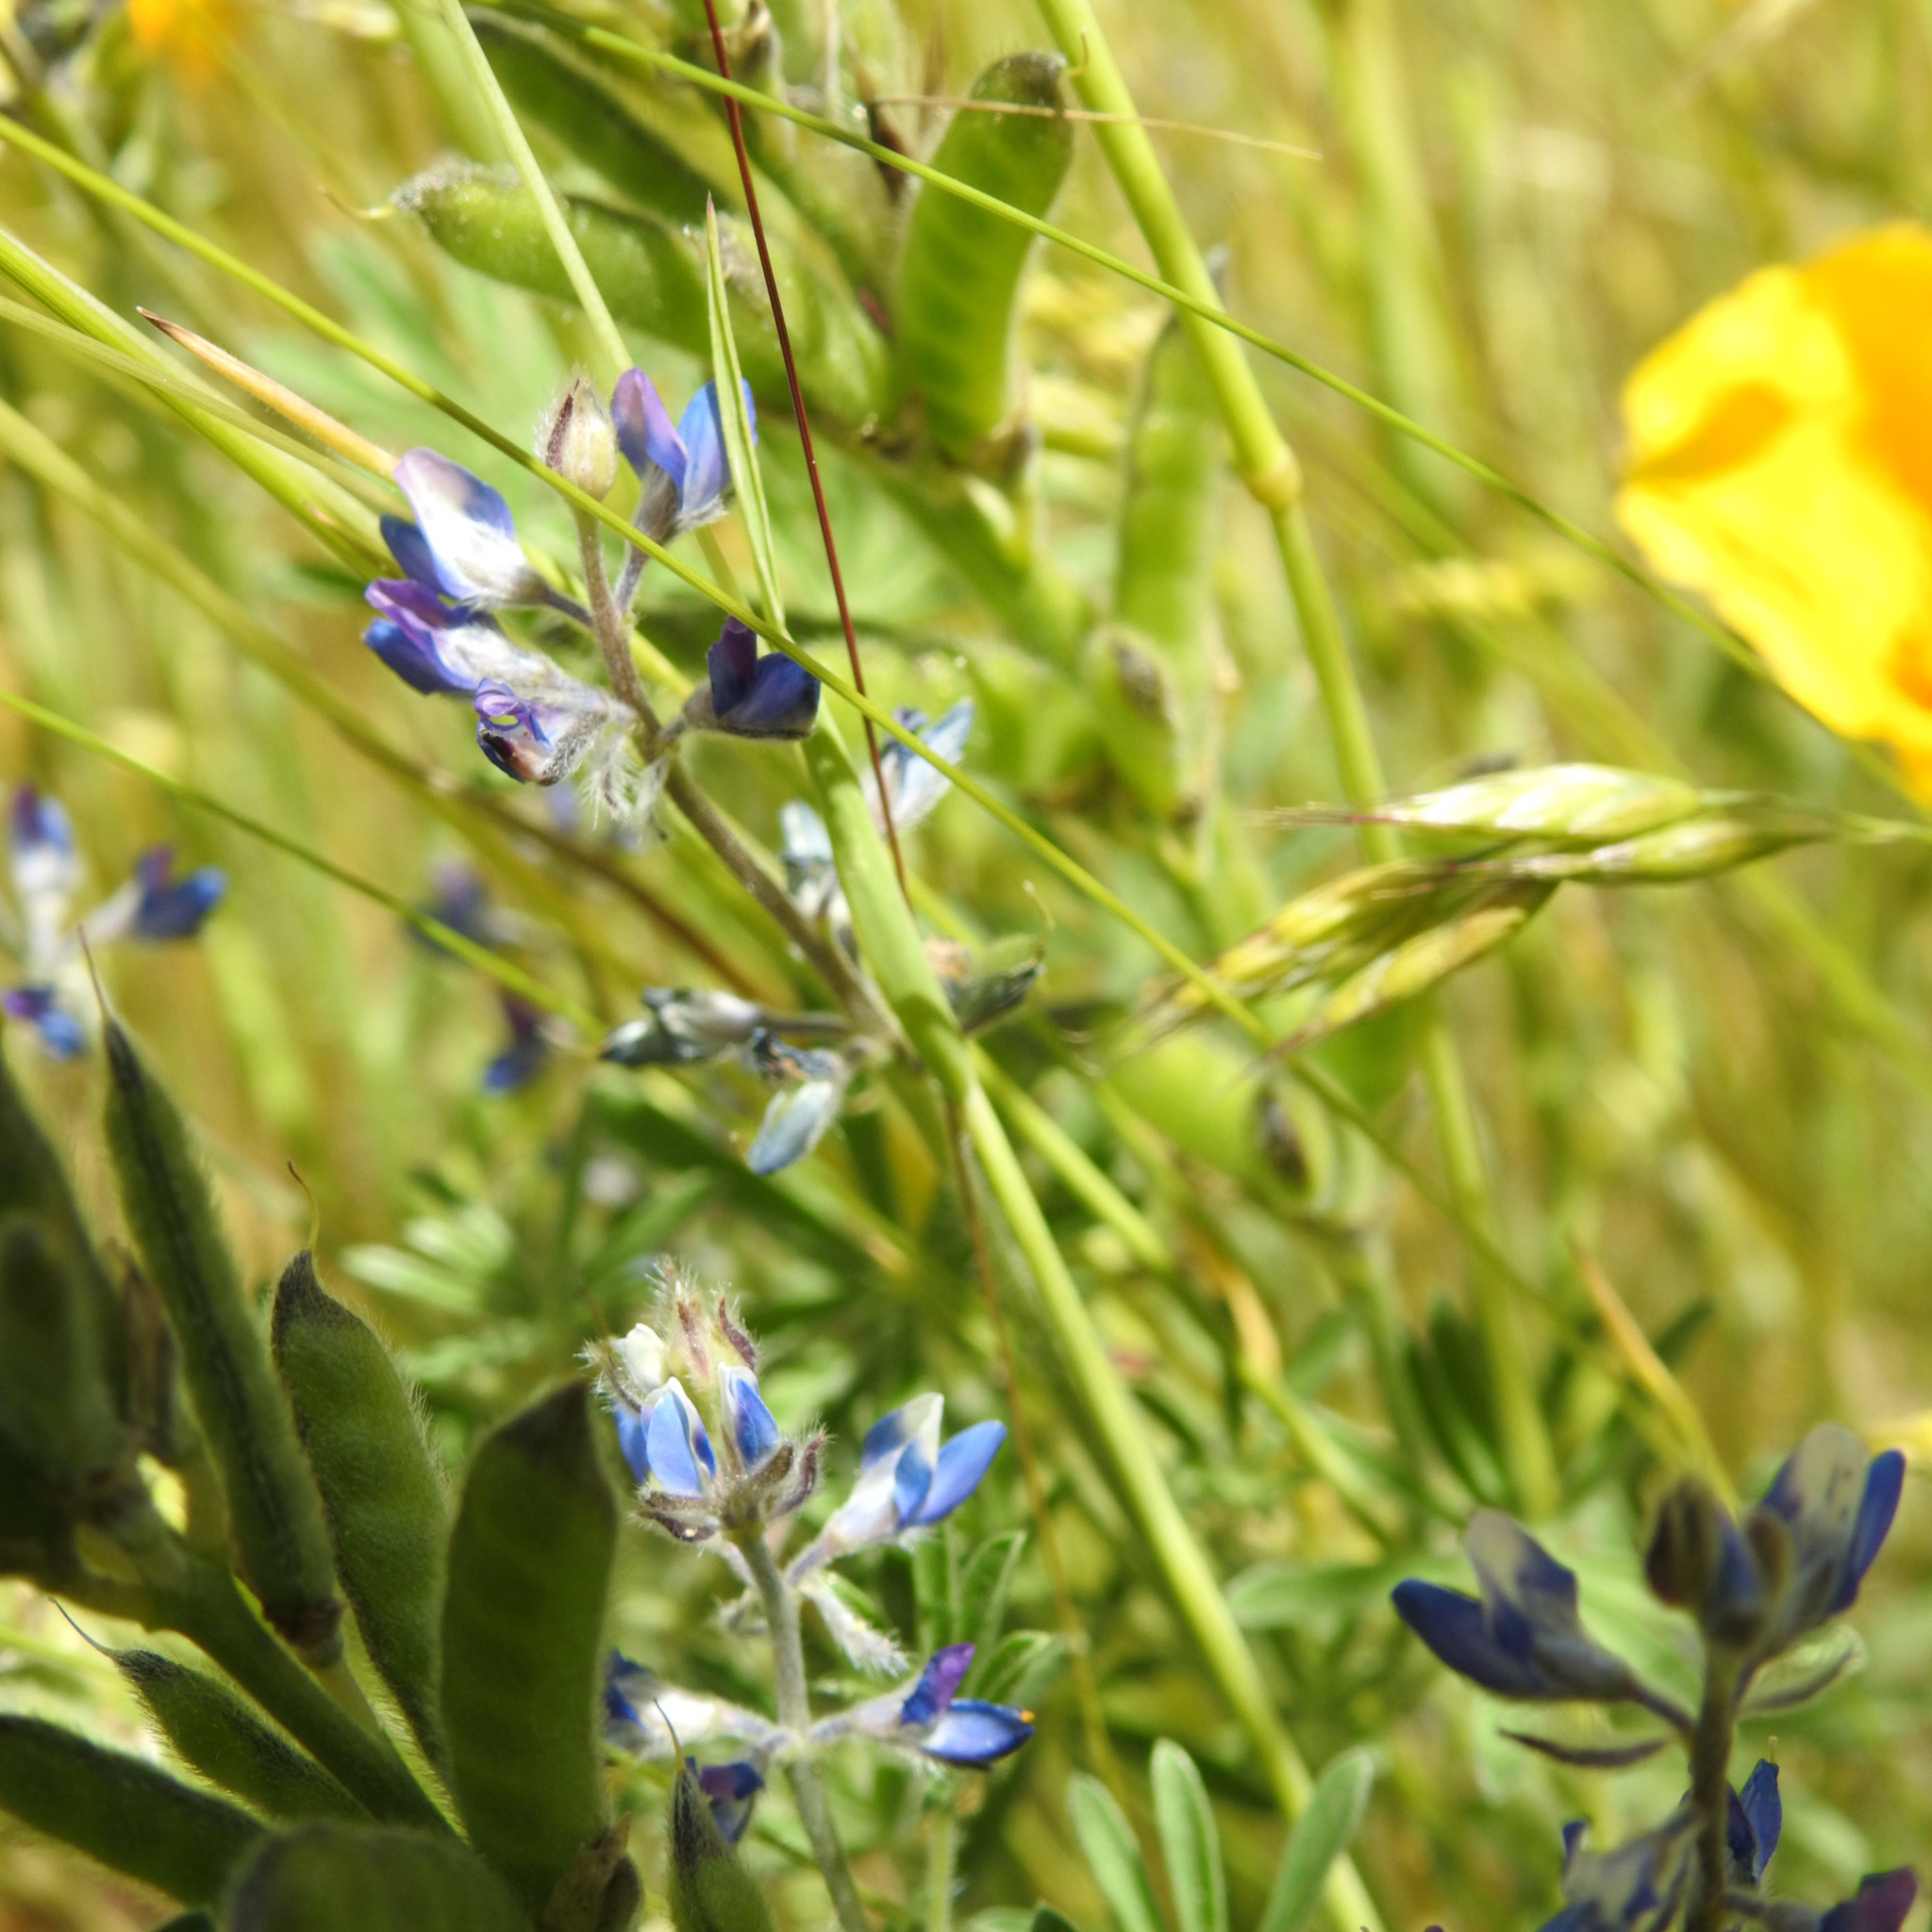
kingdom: Plantae
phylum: Tracheophyta
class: Magnoliopsida
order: Fabales
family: Fabaceae
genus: Lupinus
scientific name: Lupinus bicolor
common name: Miniature lupine
